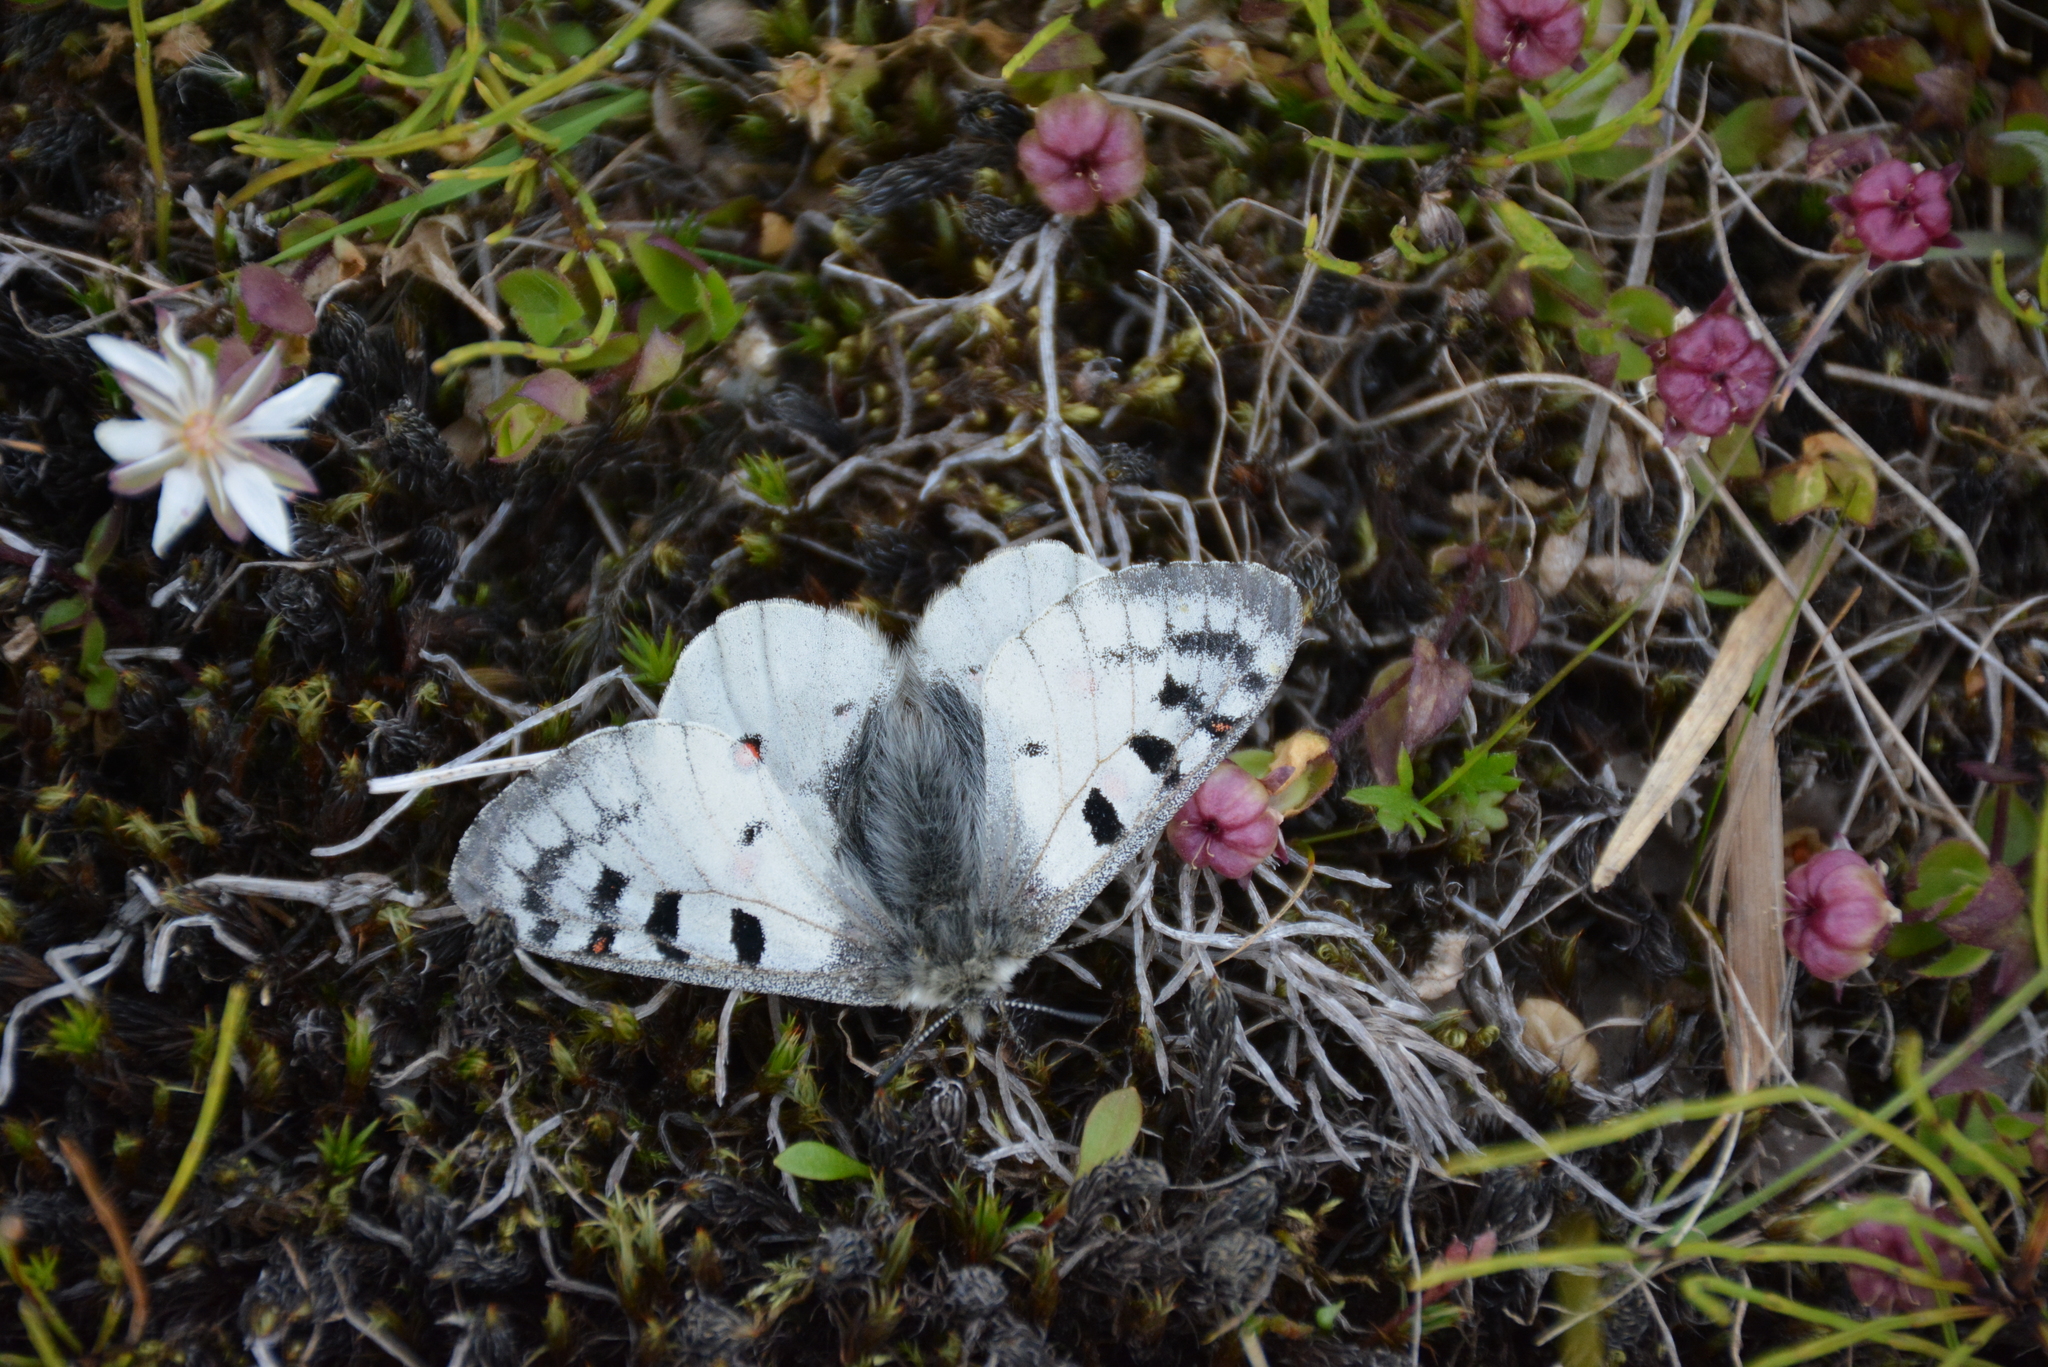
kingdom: Animalia
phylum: Arthropoda
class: Insecta
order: Lepidoptera
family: Papilionidae
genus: Parnassius
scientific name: Parnassius phoebus
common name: Small apollo
